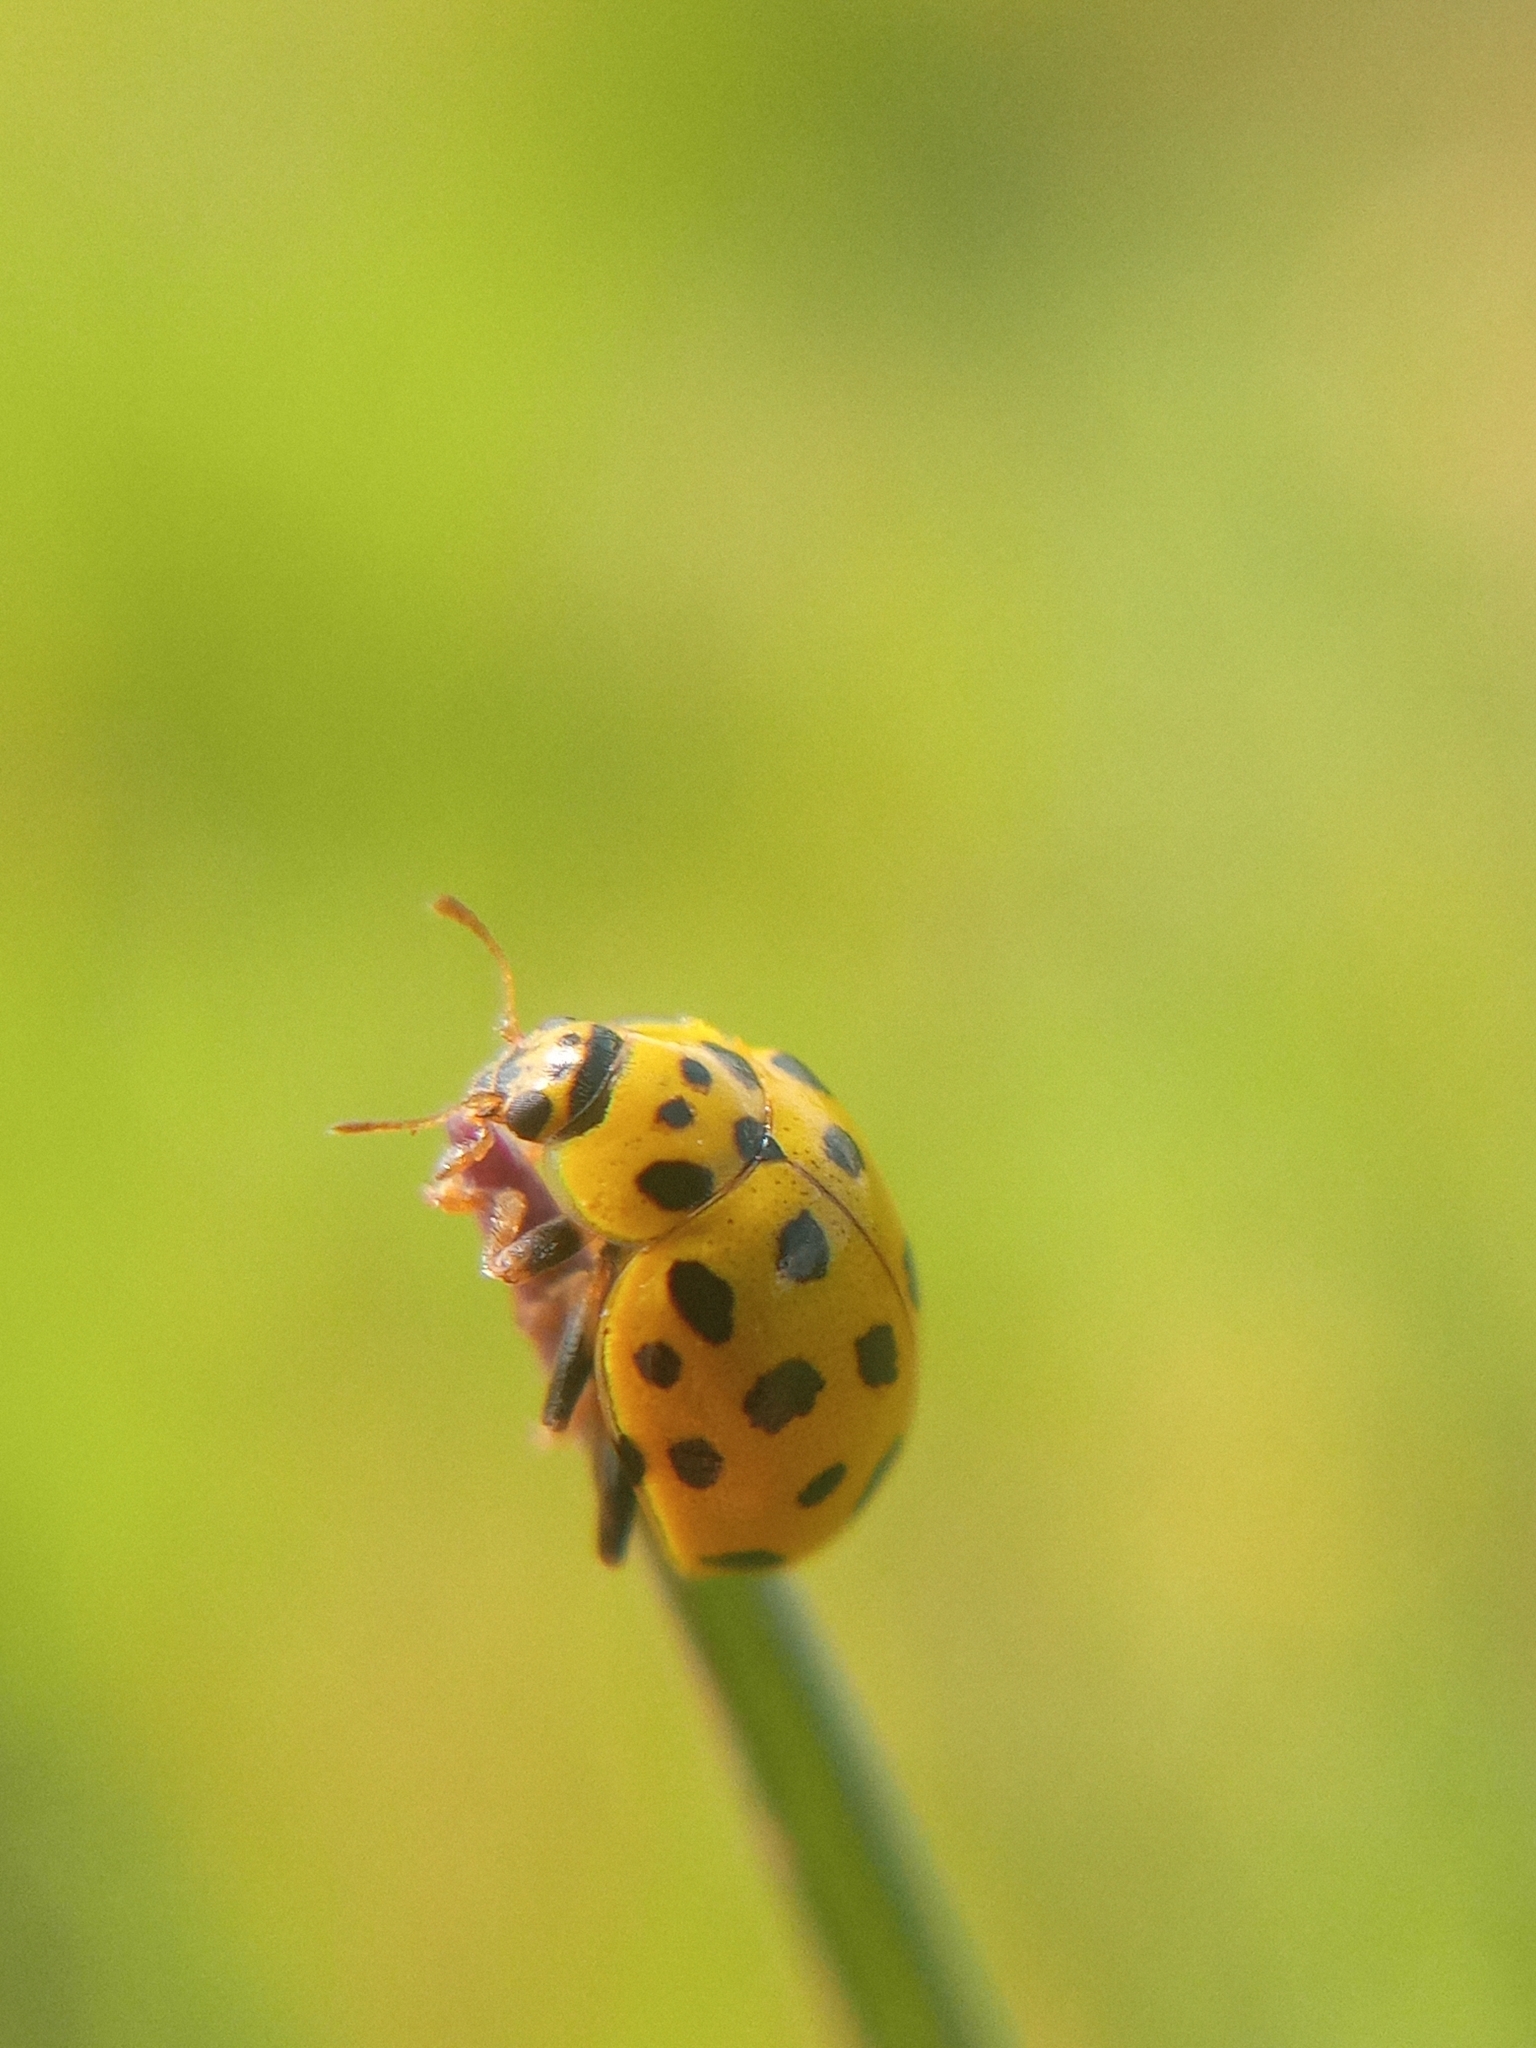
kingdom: Animalia
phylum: Arthropoda
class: Insecta
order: Coleoptera
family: Coccinellidae
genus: Psyllobora
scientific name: Psyllobora vigintiduopunctata
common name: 22-spot ladybird
